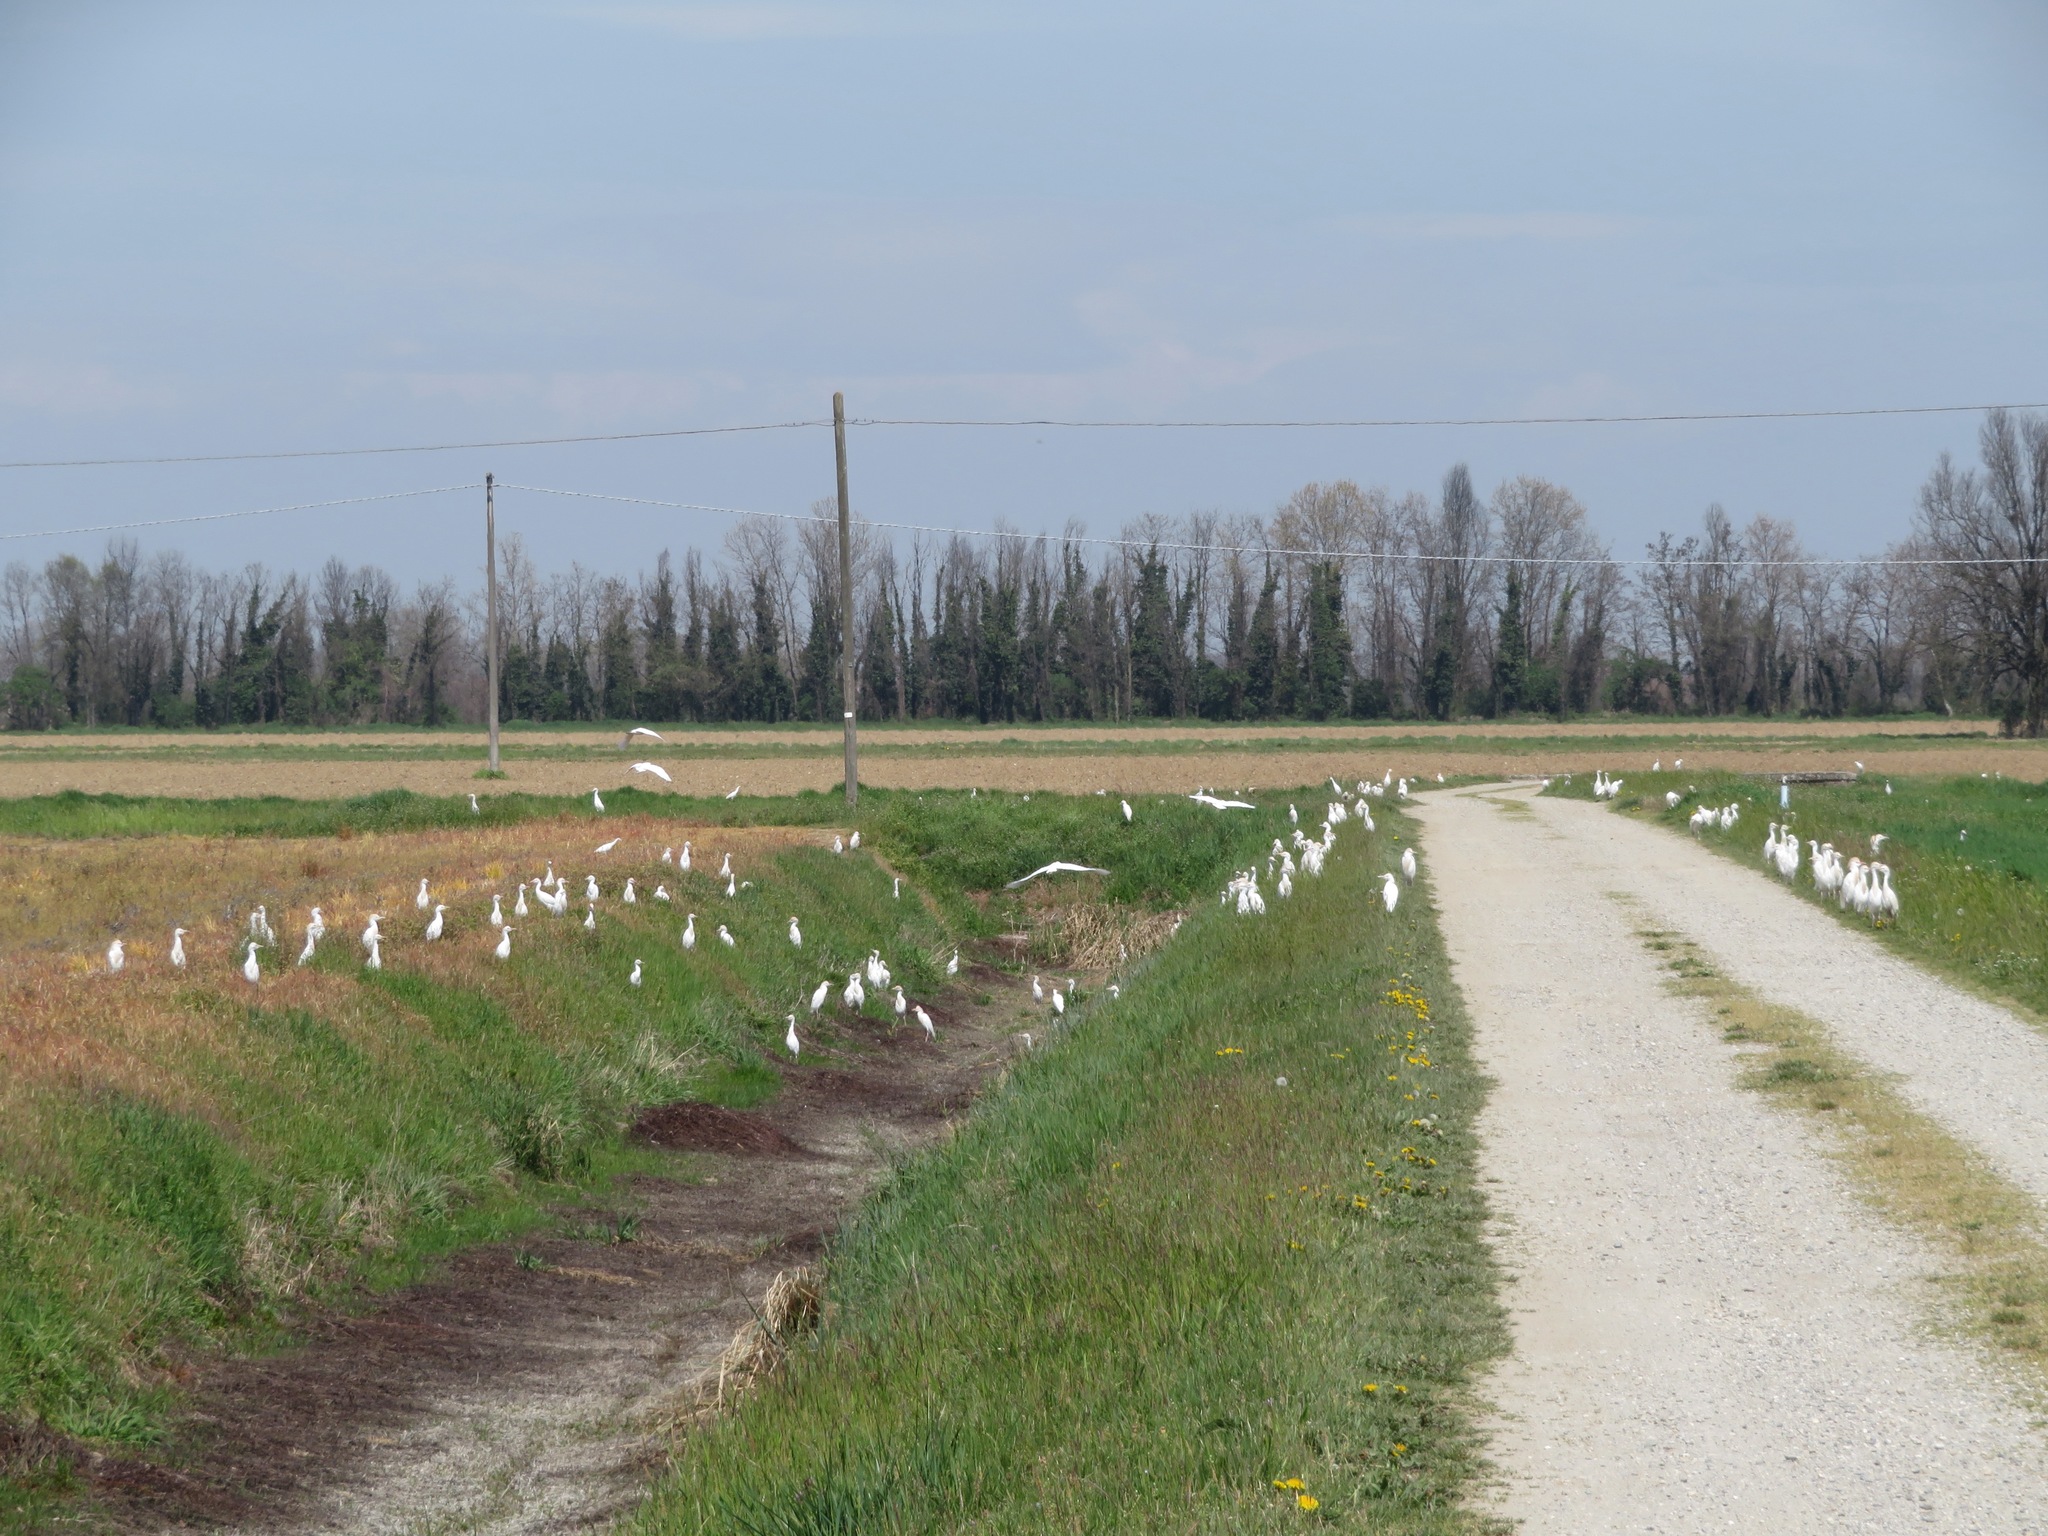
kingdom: Animalia
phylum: Chordata
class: Aves
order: Pelecaniformes
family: Ardeidae
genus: Bubulcus
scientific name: Bubulcus ibis
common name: Cattle egret
